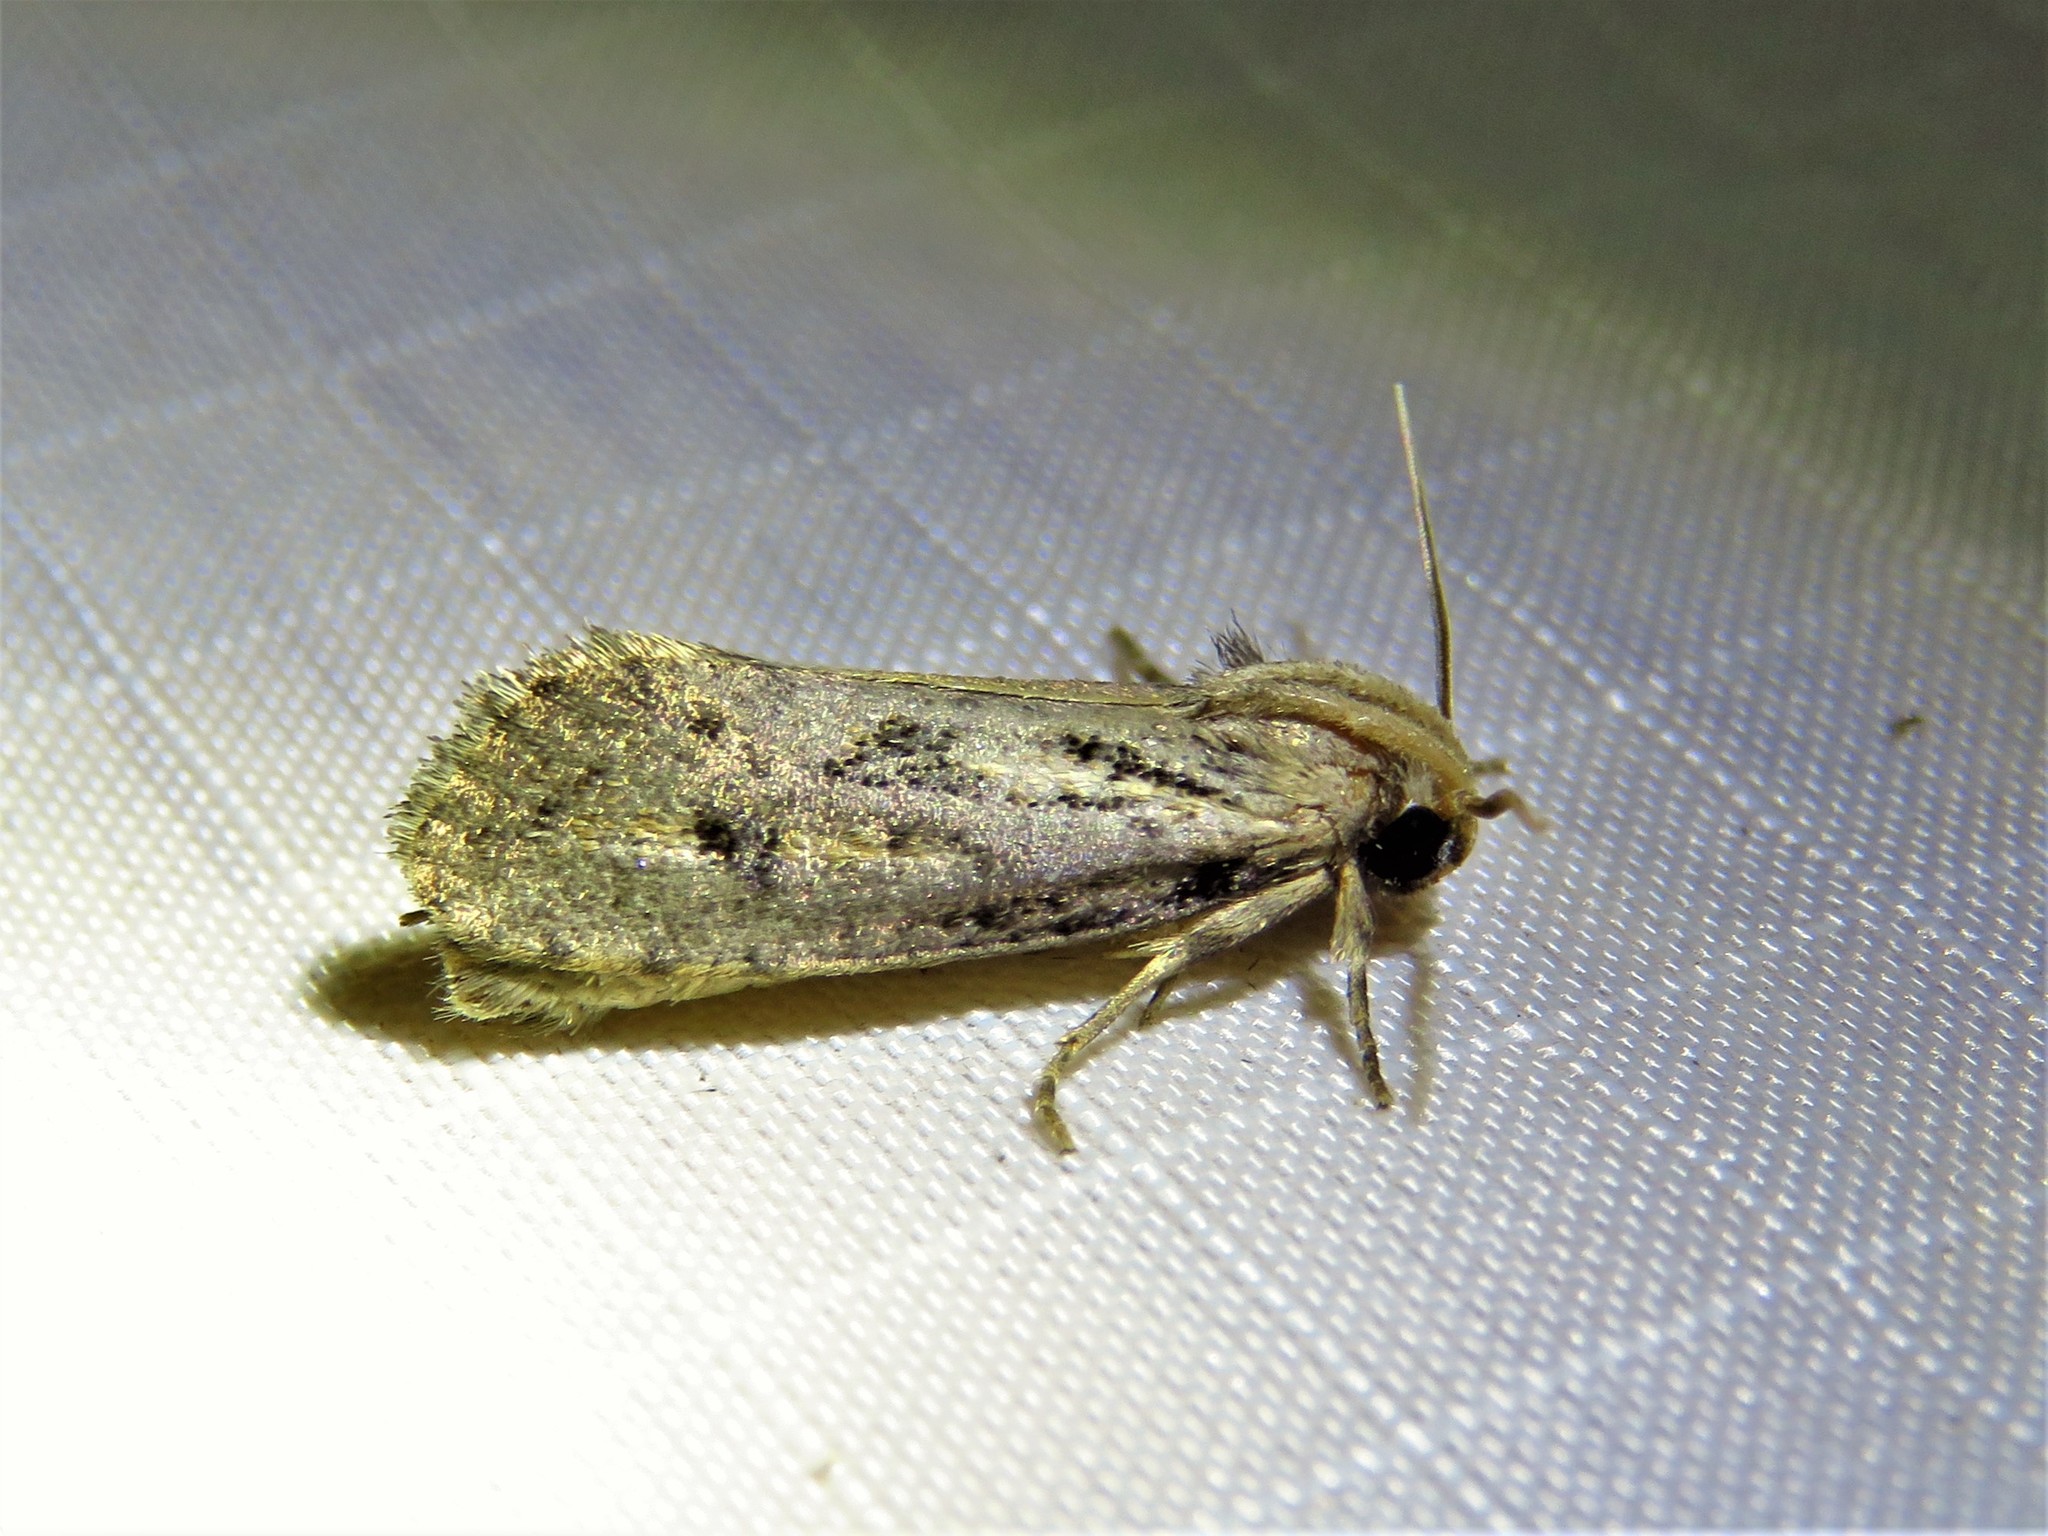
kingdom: Animalia
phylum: Arthropoda
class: Insecta
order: Lepidoptera
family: Tineidae
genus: Acrolophus
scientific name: Acrolophus popeanella
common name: Clemens' grass tubeworm moth
